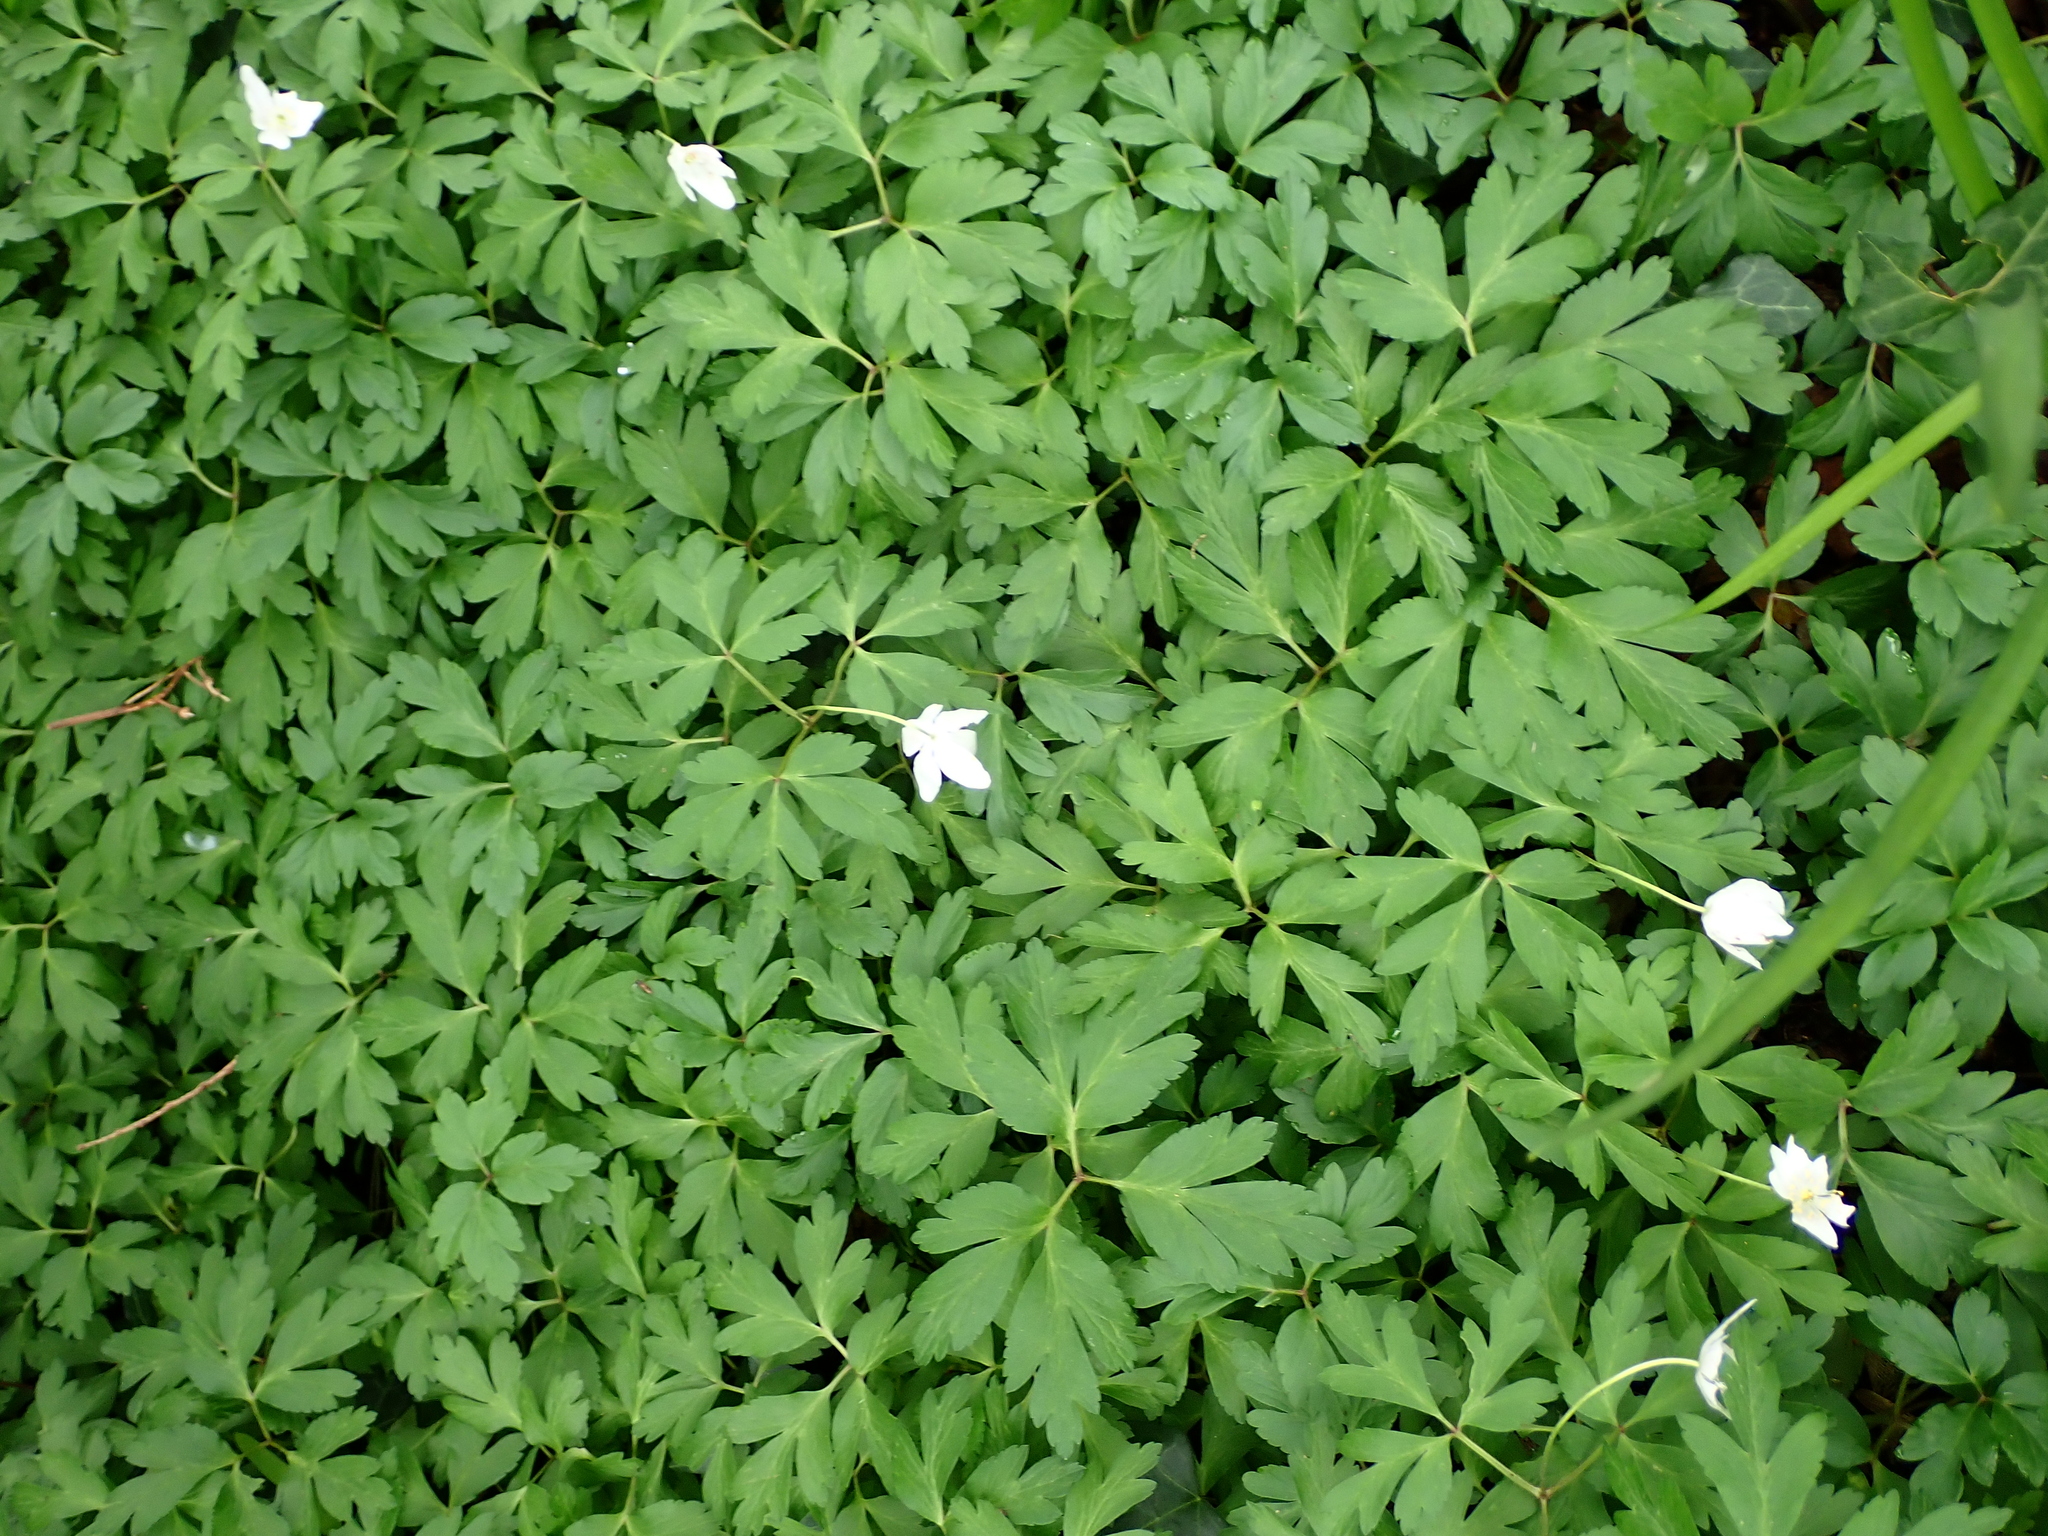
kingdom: Plantae
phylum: Tracheophyta
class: Magnoliopsida
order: Ranunculales
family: Ranunculaceae
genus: Anemone
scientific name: Anemone nemorosa
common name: Wood anemone
